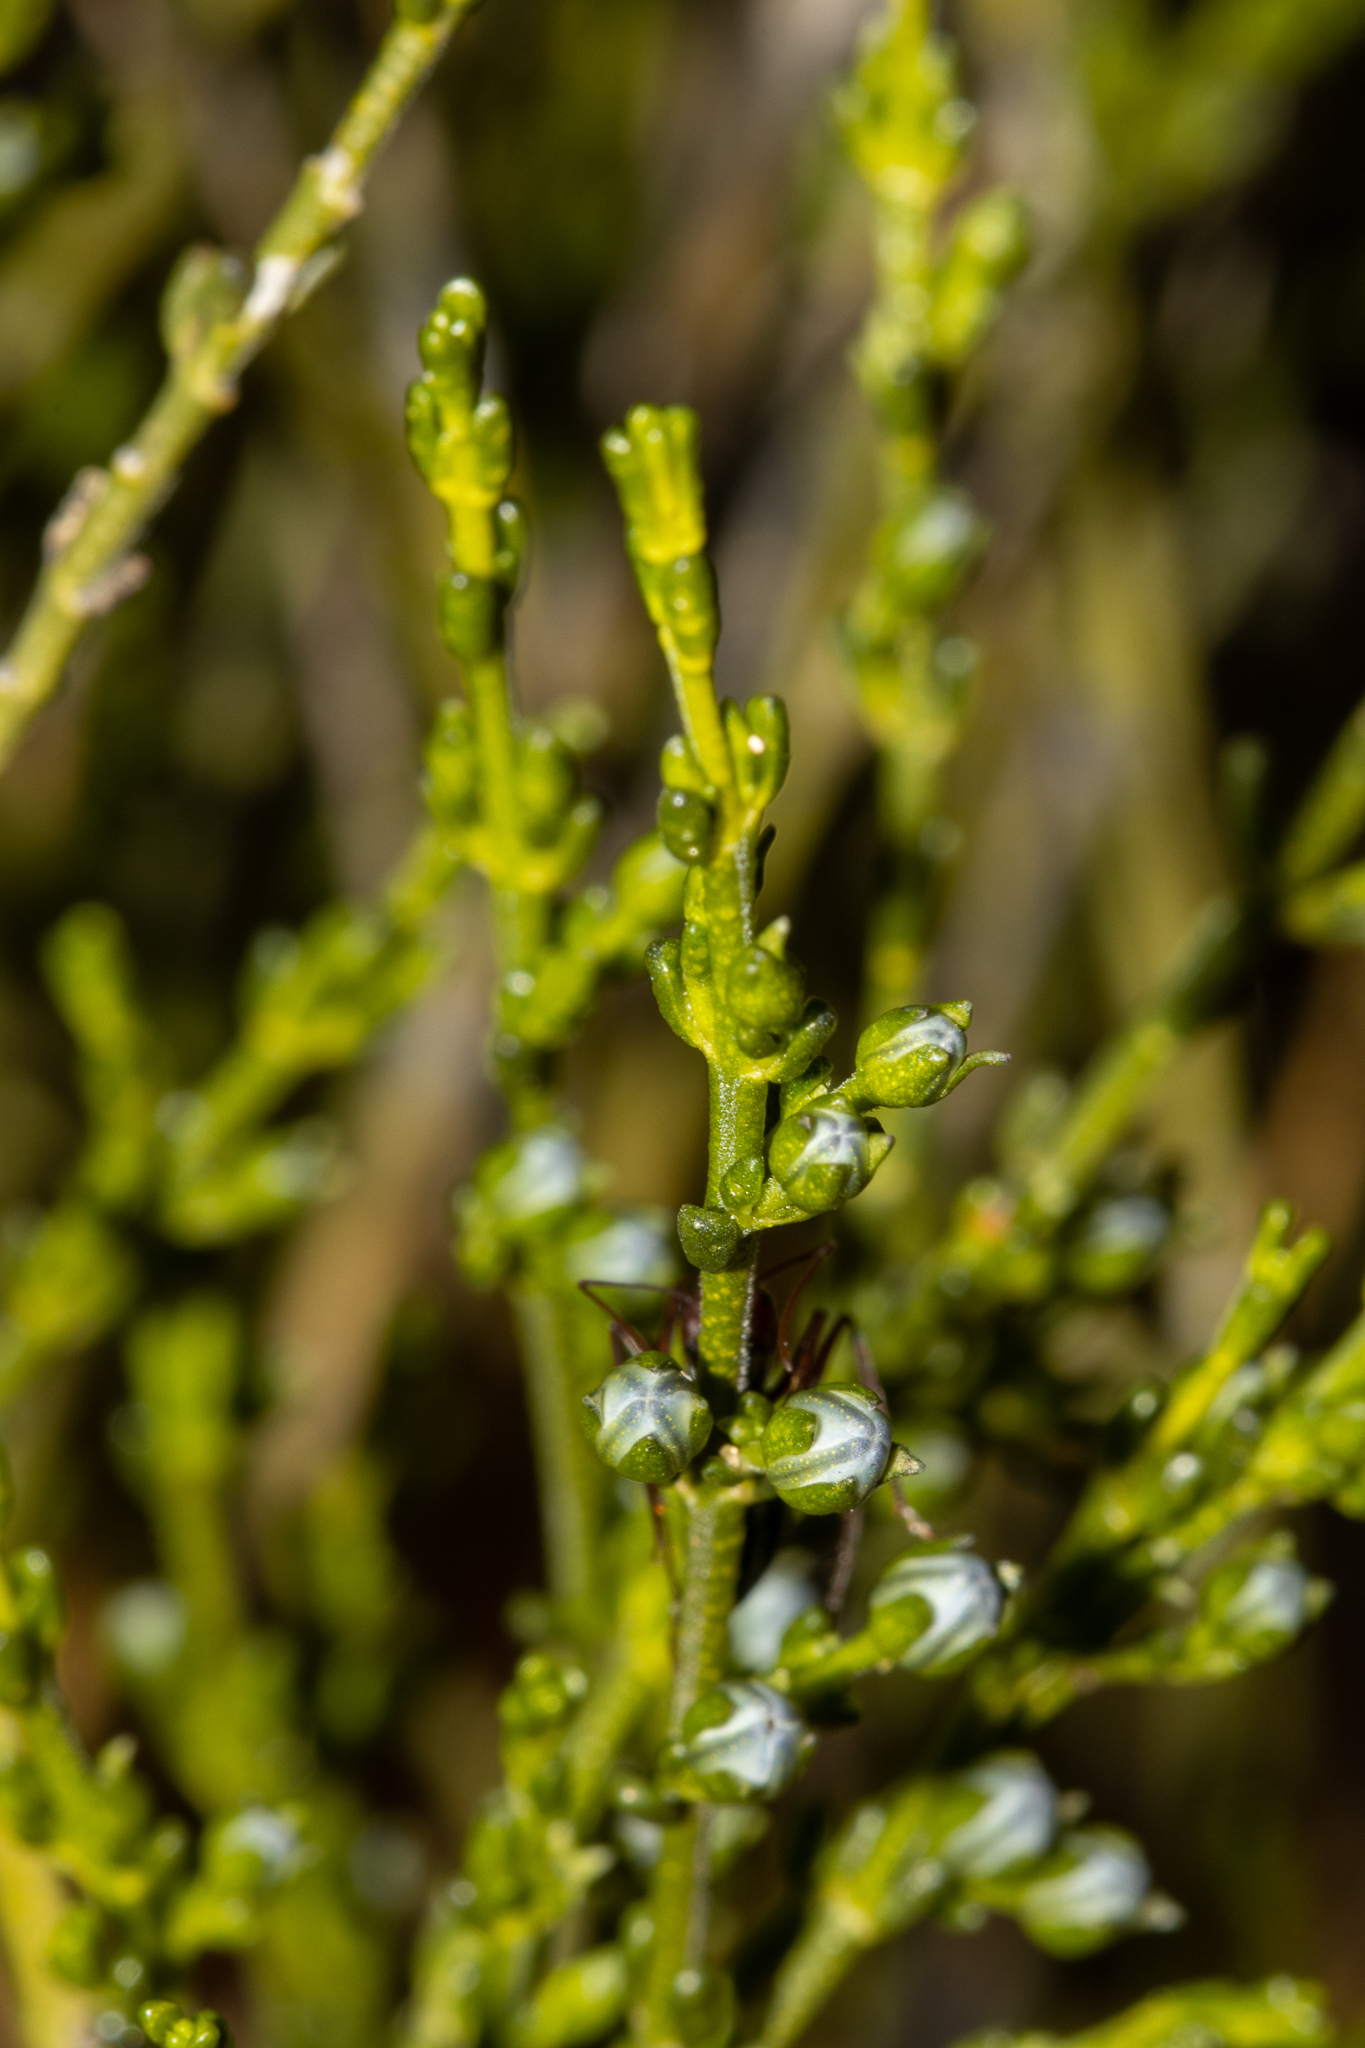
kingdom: Plantae
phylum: Tracheophyta
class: Magnoliopsida
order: Sapindales
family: Rutaceae
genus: Cyanothamnus
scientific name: Cyanothamnus coerulescens
